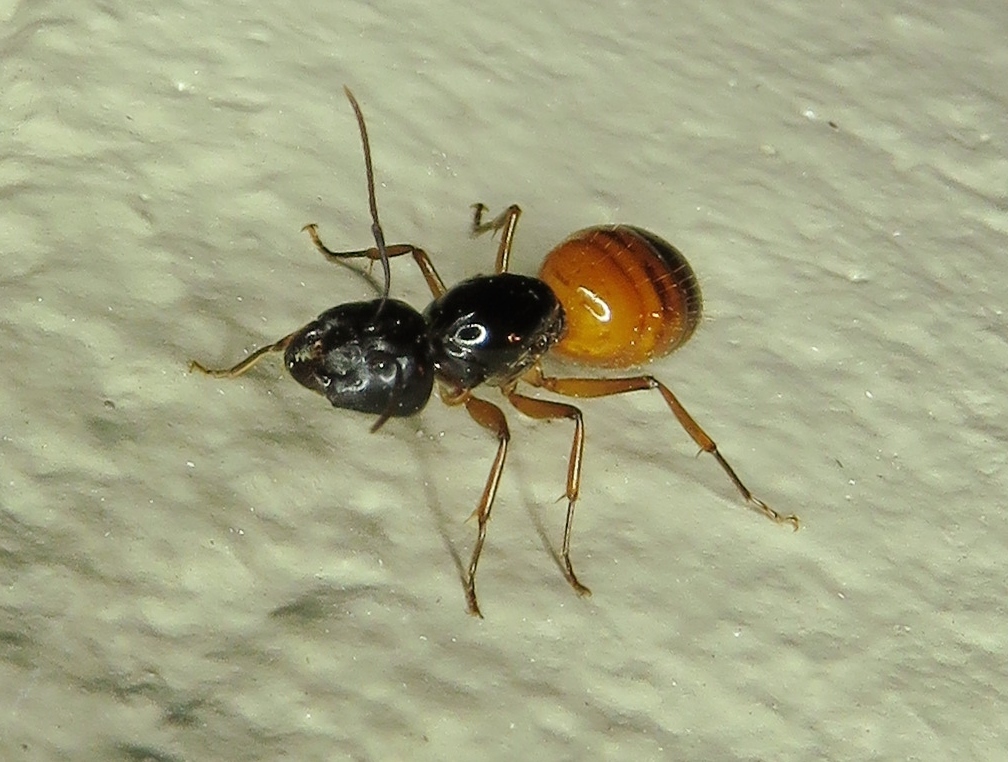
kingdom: Animalia
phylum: Arthropoda
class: Insecta
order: Hymenoptera
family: Formicidae
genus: Camponotus
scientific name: Camponotus sansabeanus
